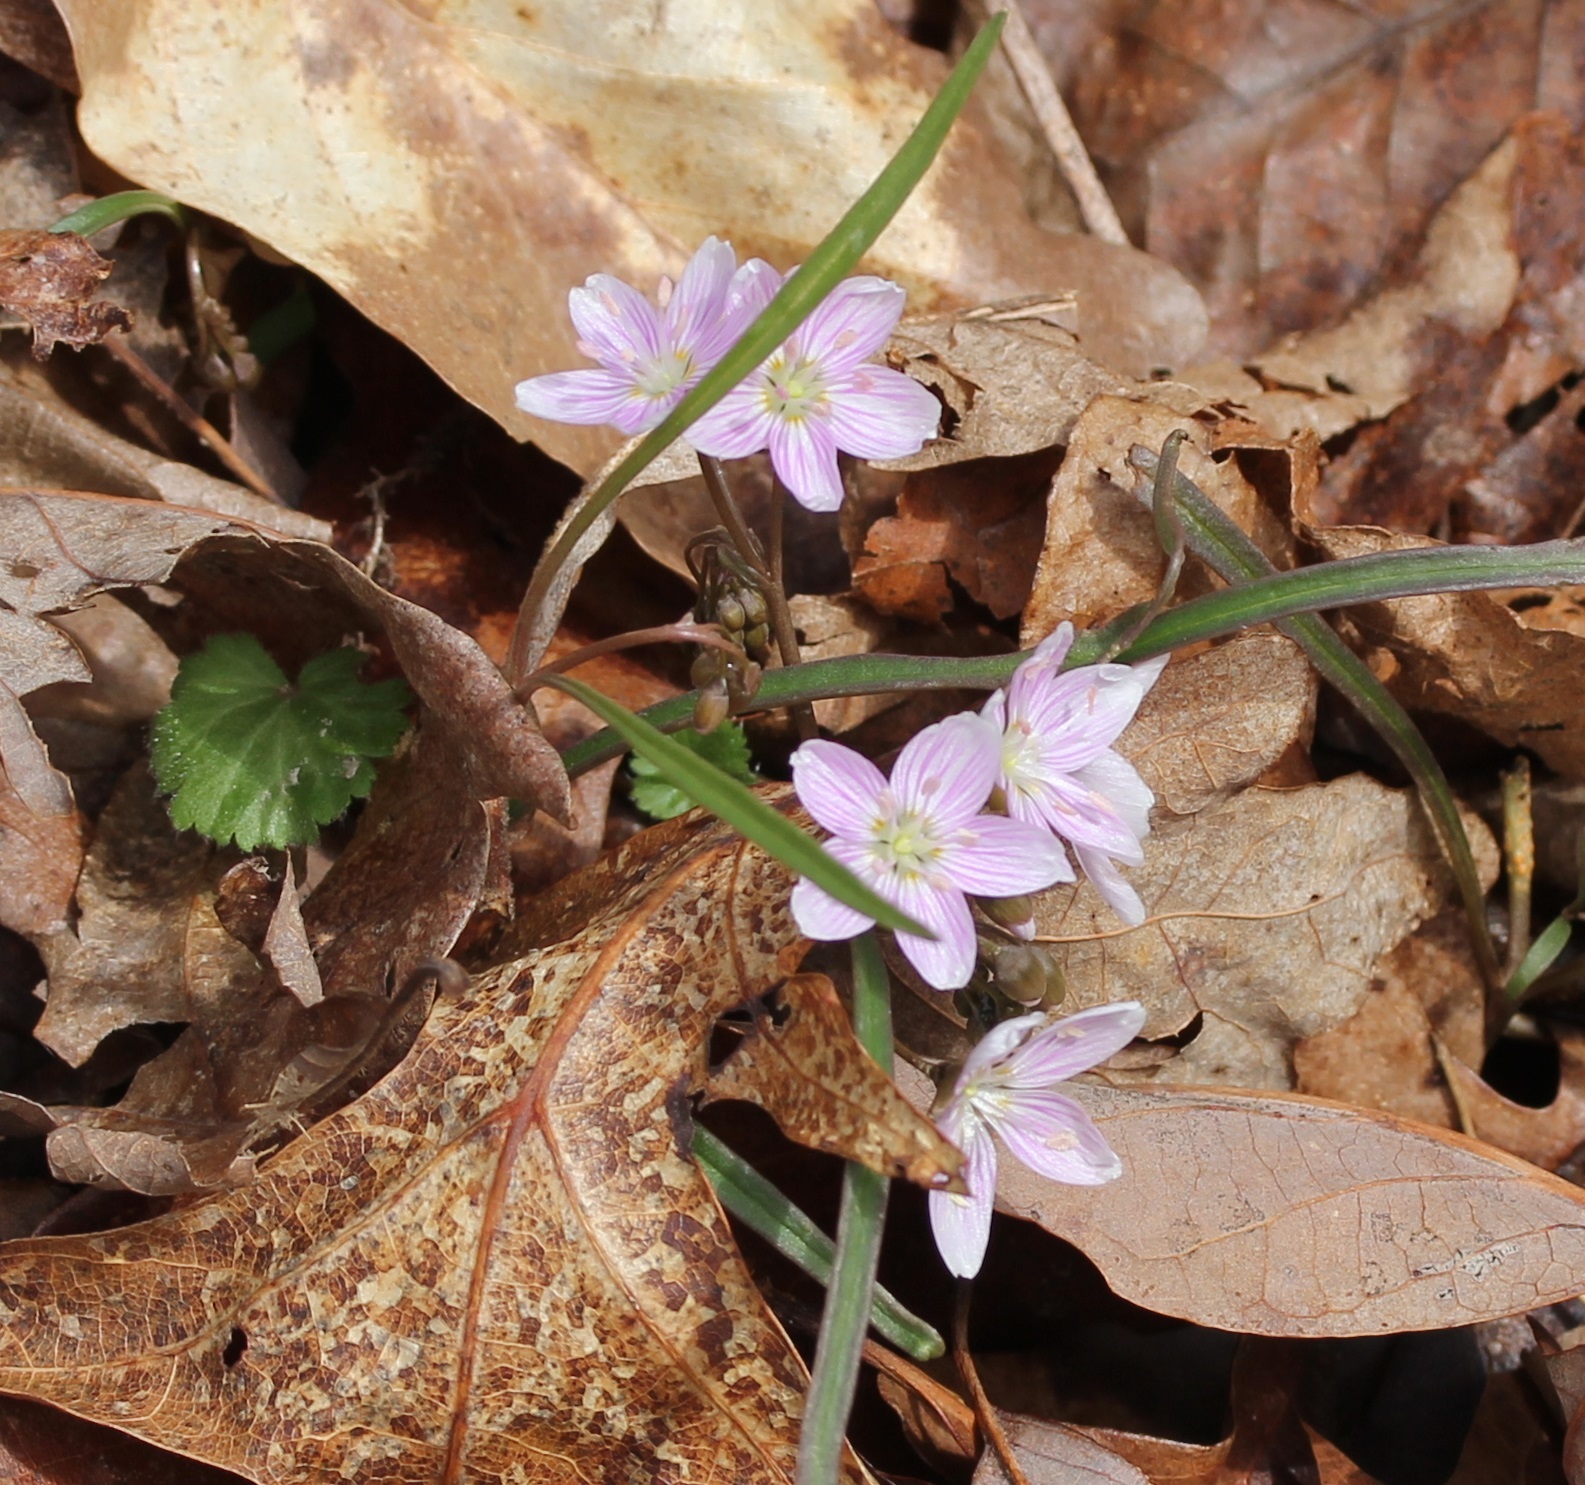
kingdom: Plantae
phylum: Tracheophyta
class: Magnoliopsida
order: Caryophyllales
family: Montiaceae
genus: Claytonia
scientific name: Claytonia virginica
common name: Virginia springbeauty
